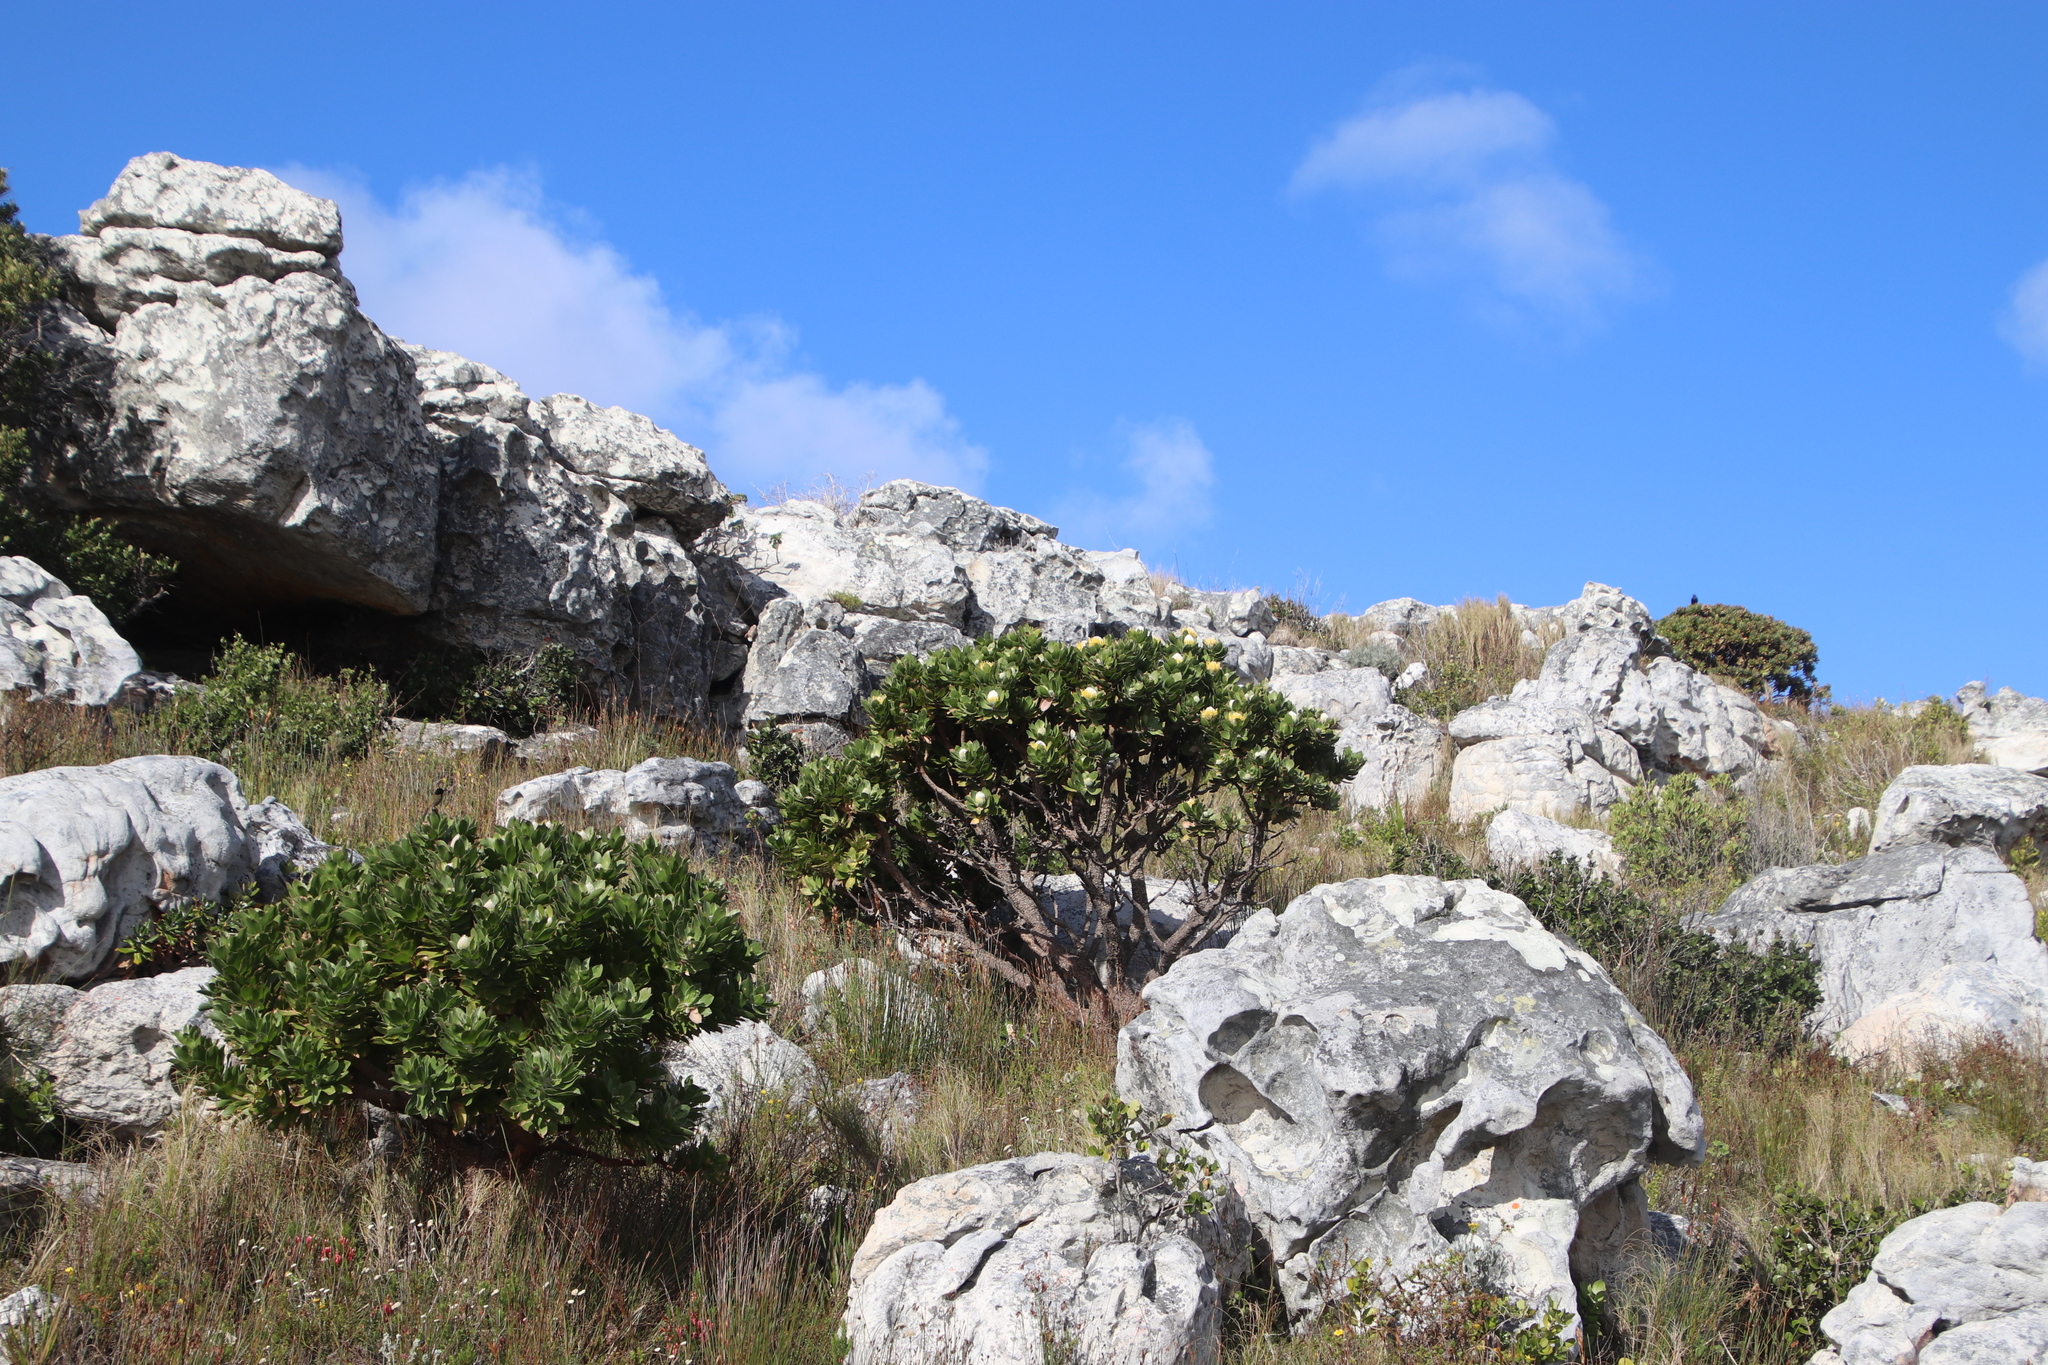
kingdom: Plantae
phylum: Tracheophyta
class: Magnoliopsida
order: Proteales
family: Proteaceae
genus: Leucospermum
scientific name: Leucospermum conocarpodendron
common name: Tree pincushion
